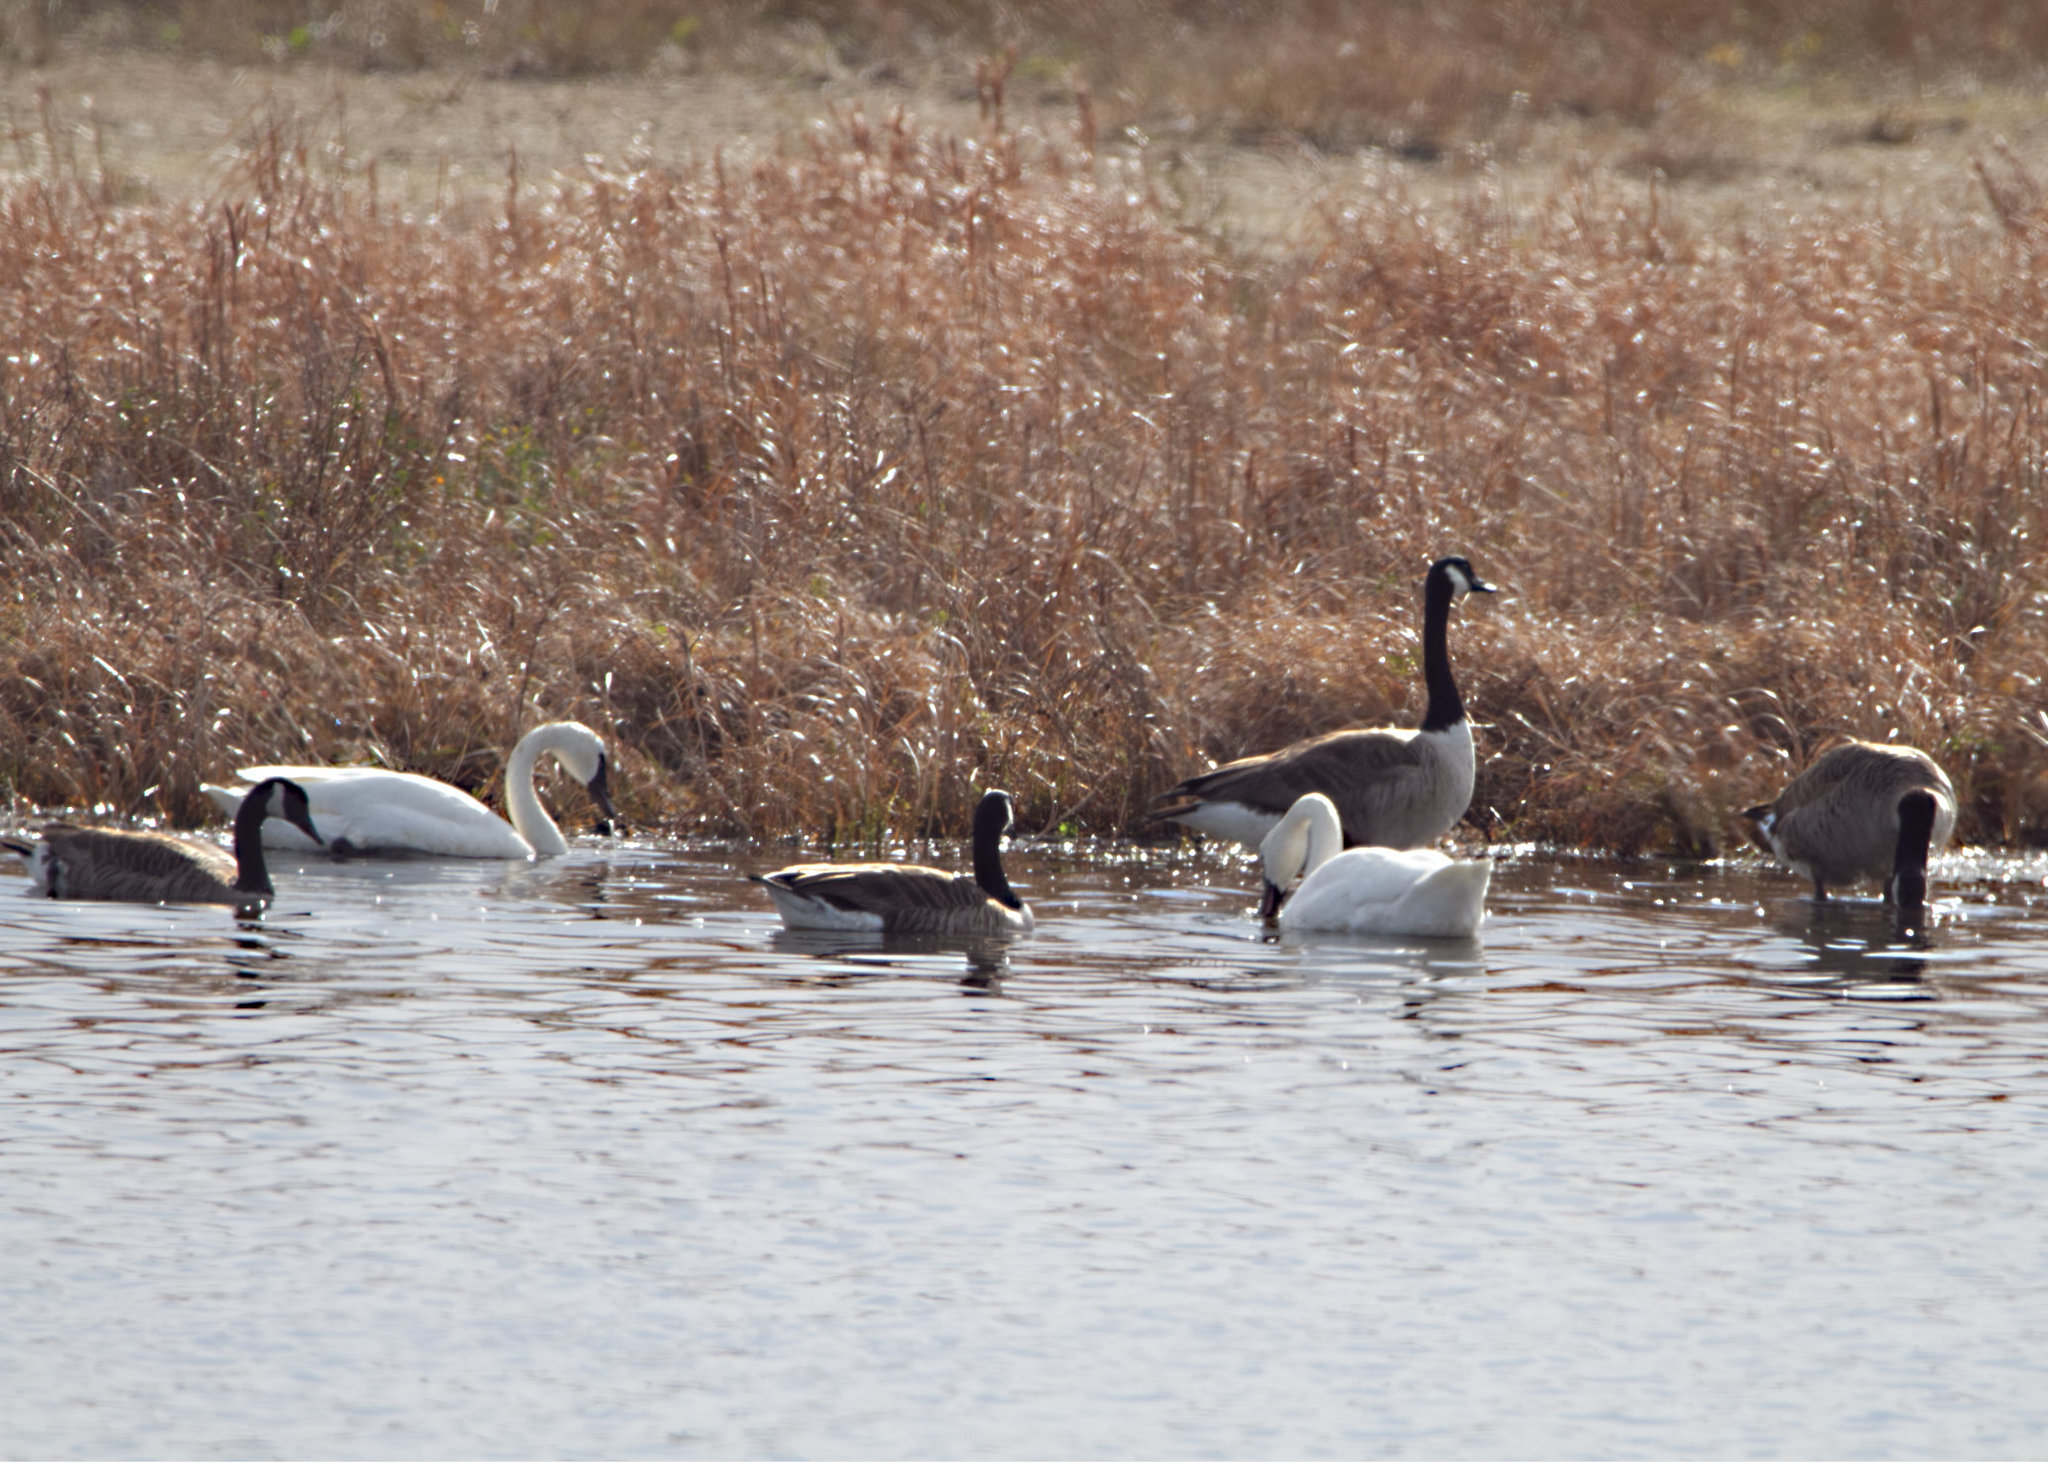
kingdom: Animalia
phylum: Chordata
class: Aves
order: Anseriformes
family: Anatidae
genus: Cygnus
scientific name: Cygnus columbianus
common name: Tundra swan
